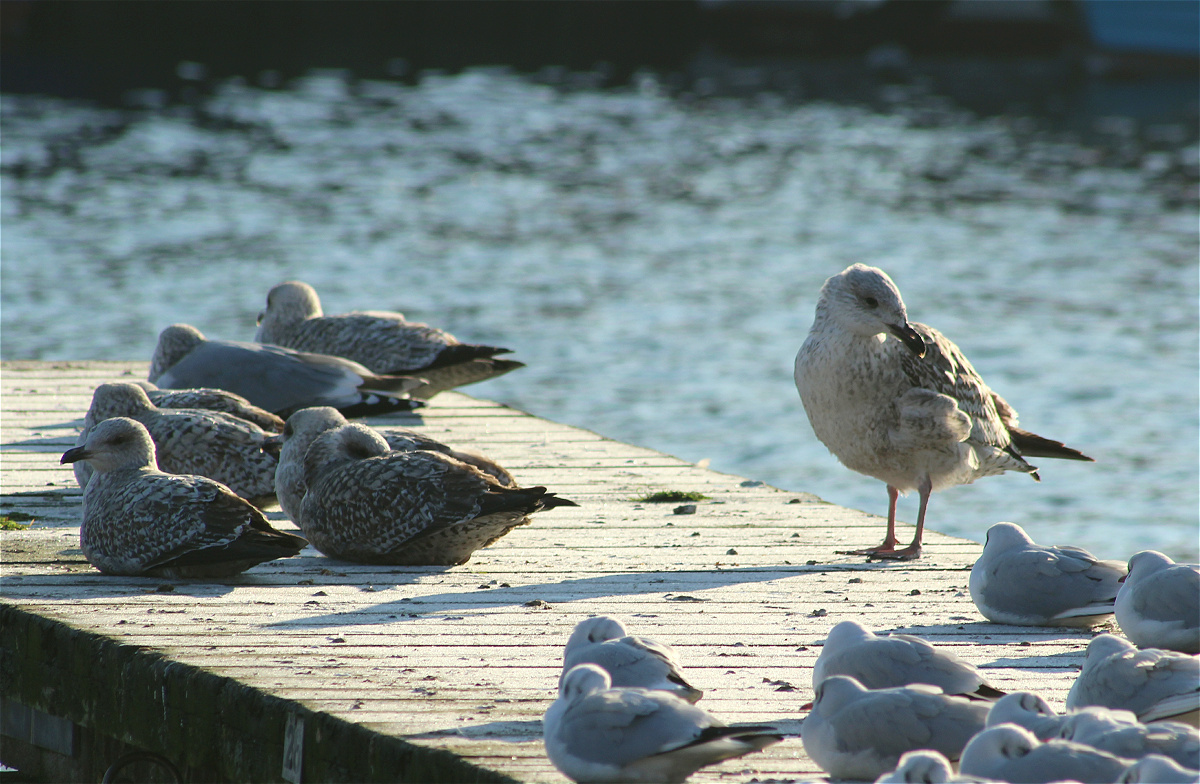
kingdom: Animalia
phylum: Chordata
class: Aves
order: Charadriiformes
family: Laridae
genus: Larus
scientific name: Larus argentatus
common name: Herring gull
